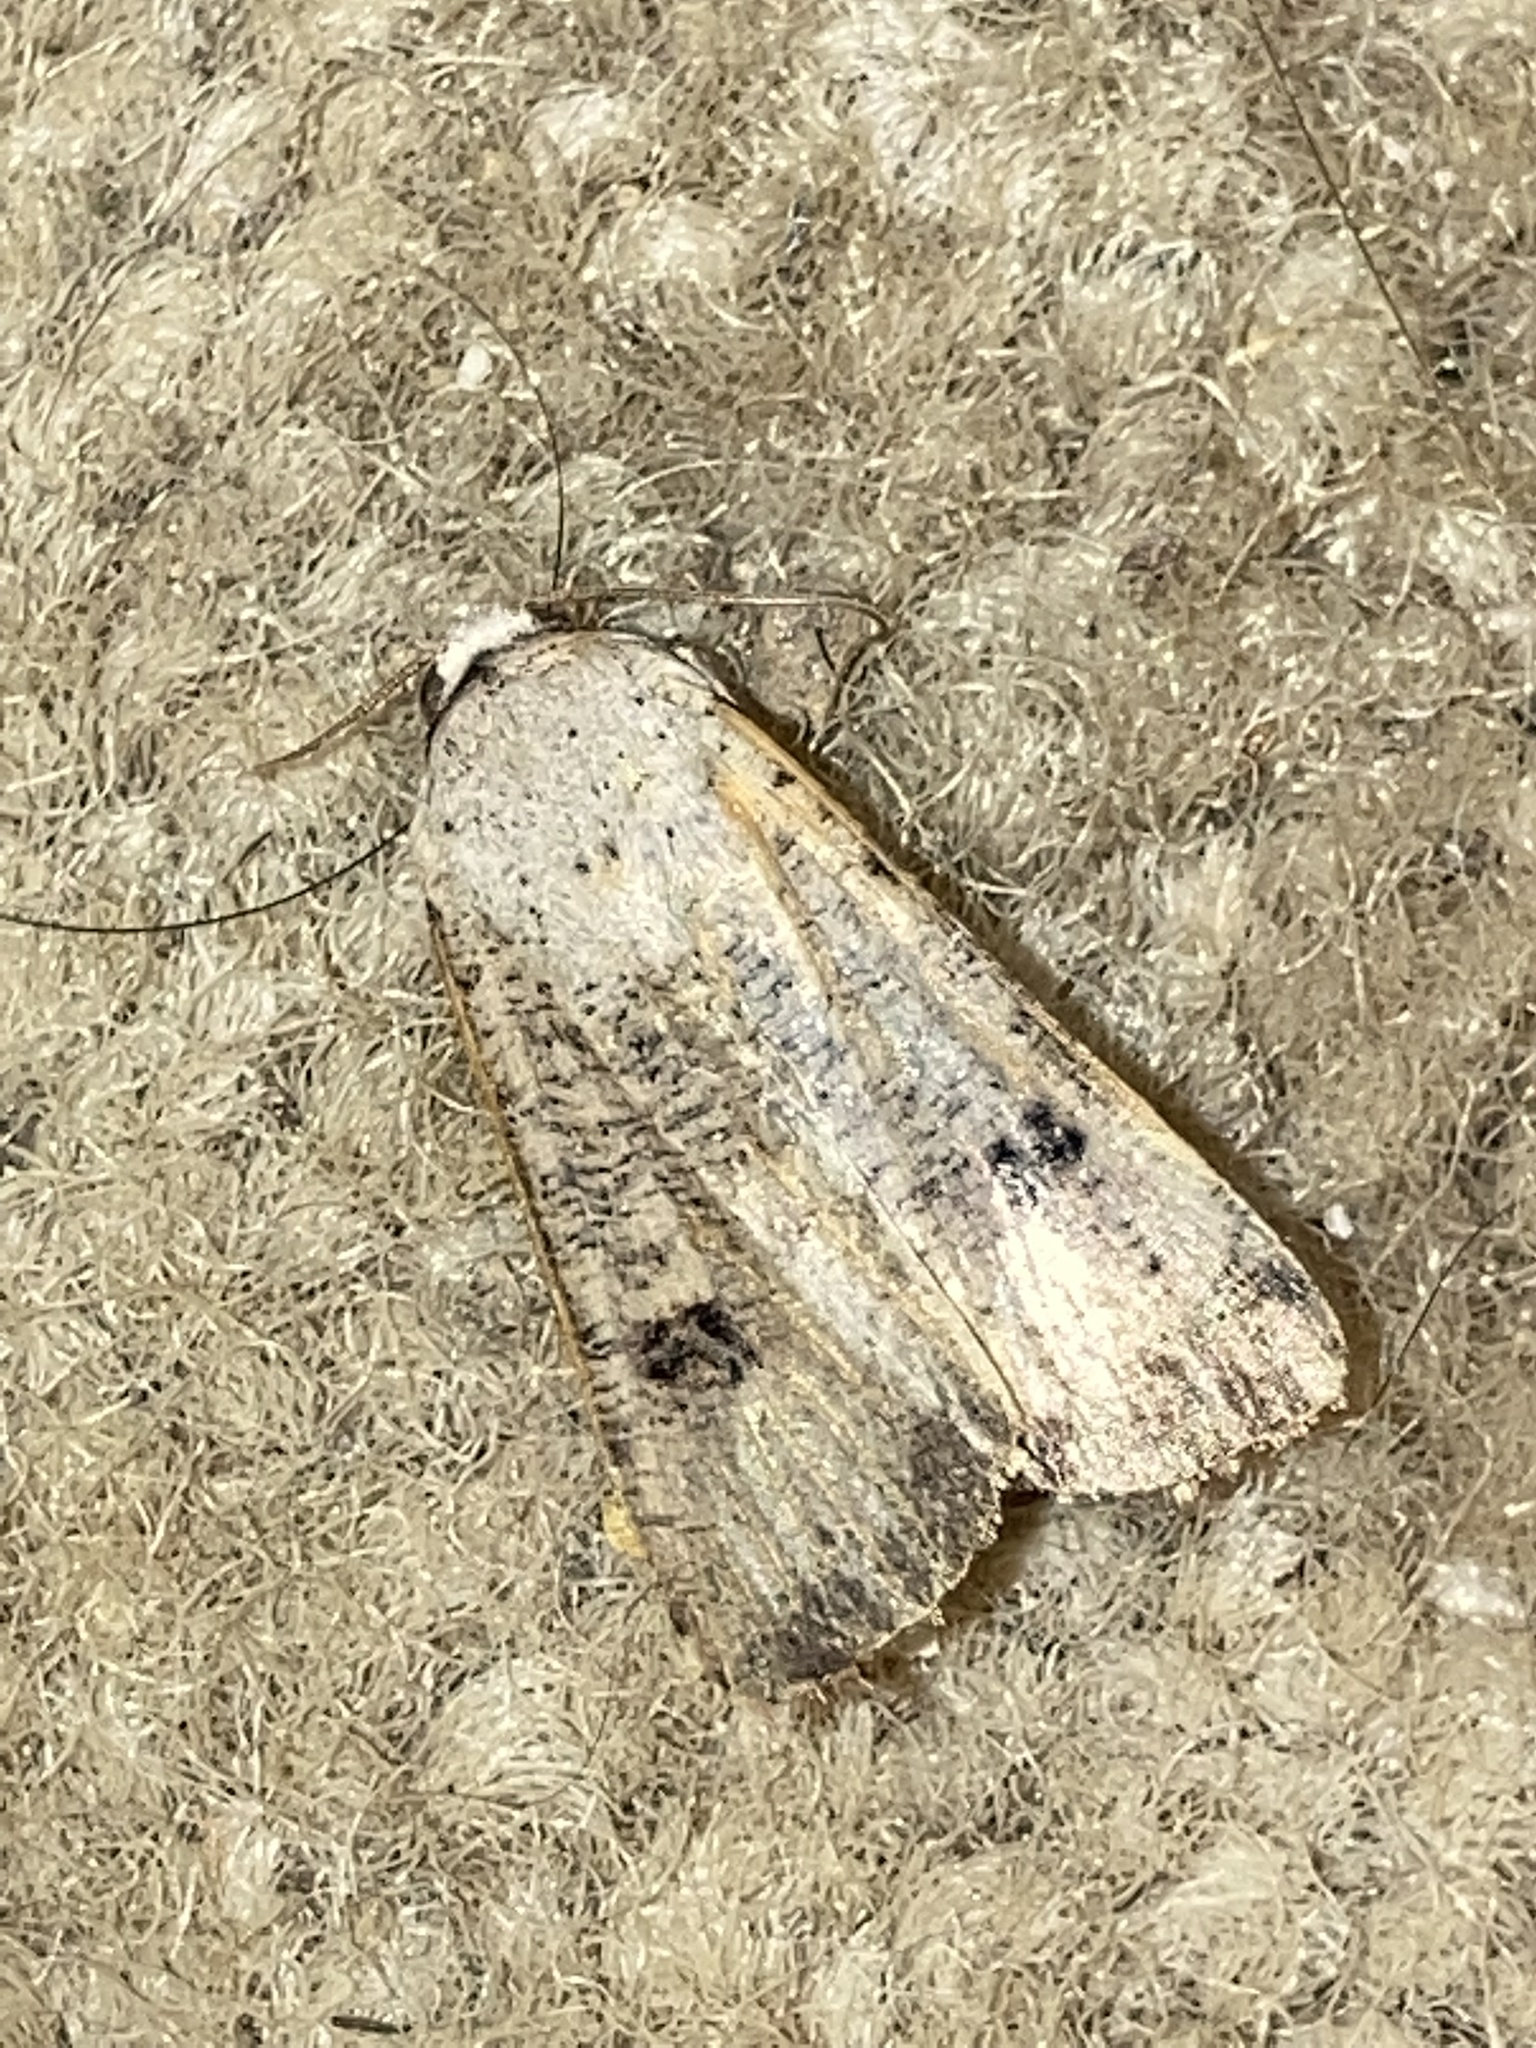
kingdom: Animalia
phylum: Arthropoda
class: Insecta
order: Lepidoptera
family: Noctuidae
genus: Anicla
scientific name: Anicla infecta
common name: Green cutworm
